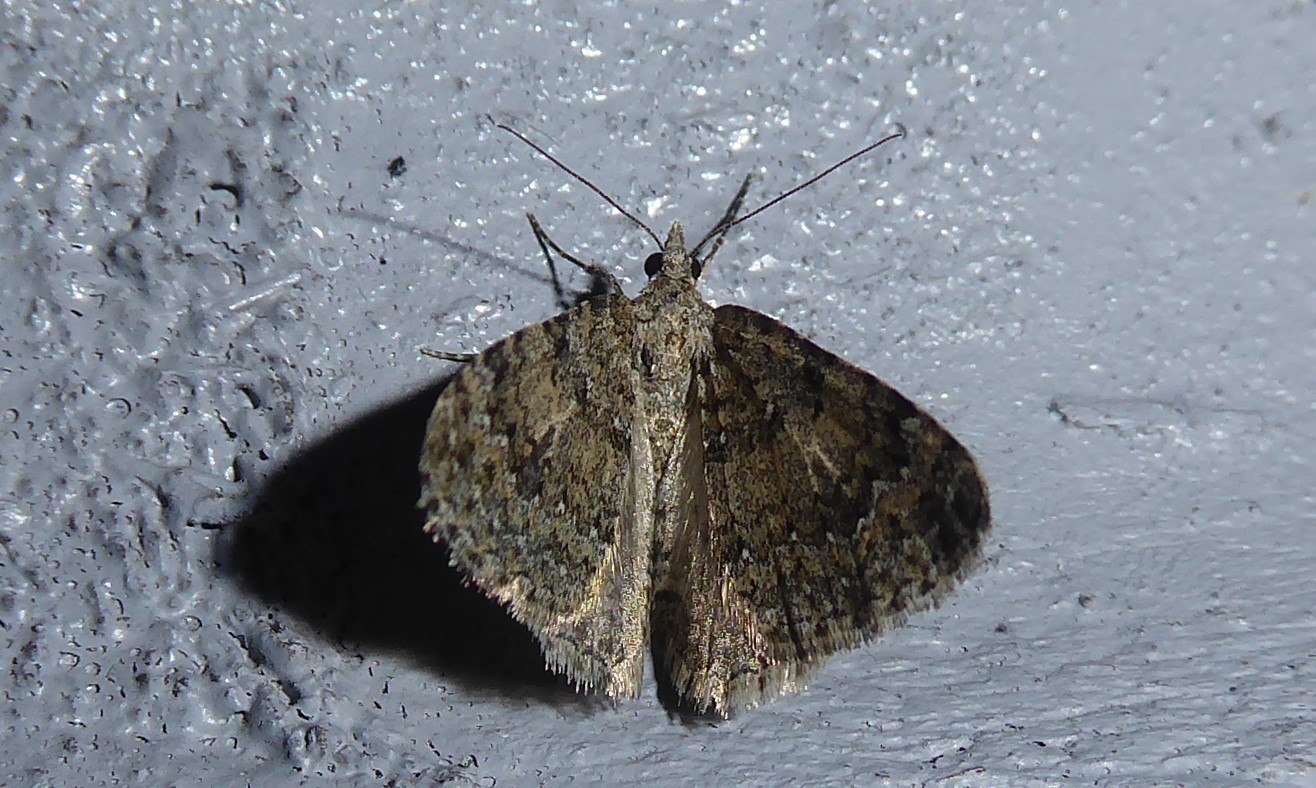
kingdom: Animalia
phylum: Arthropoda
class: Insecta
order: Lepidoptera
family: Geometridae
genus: Helastia
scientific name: Helastia corcularia
